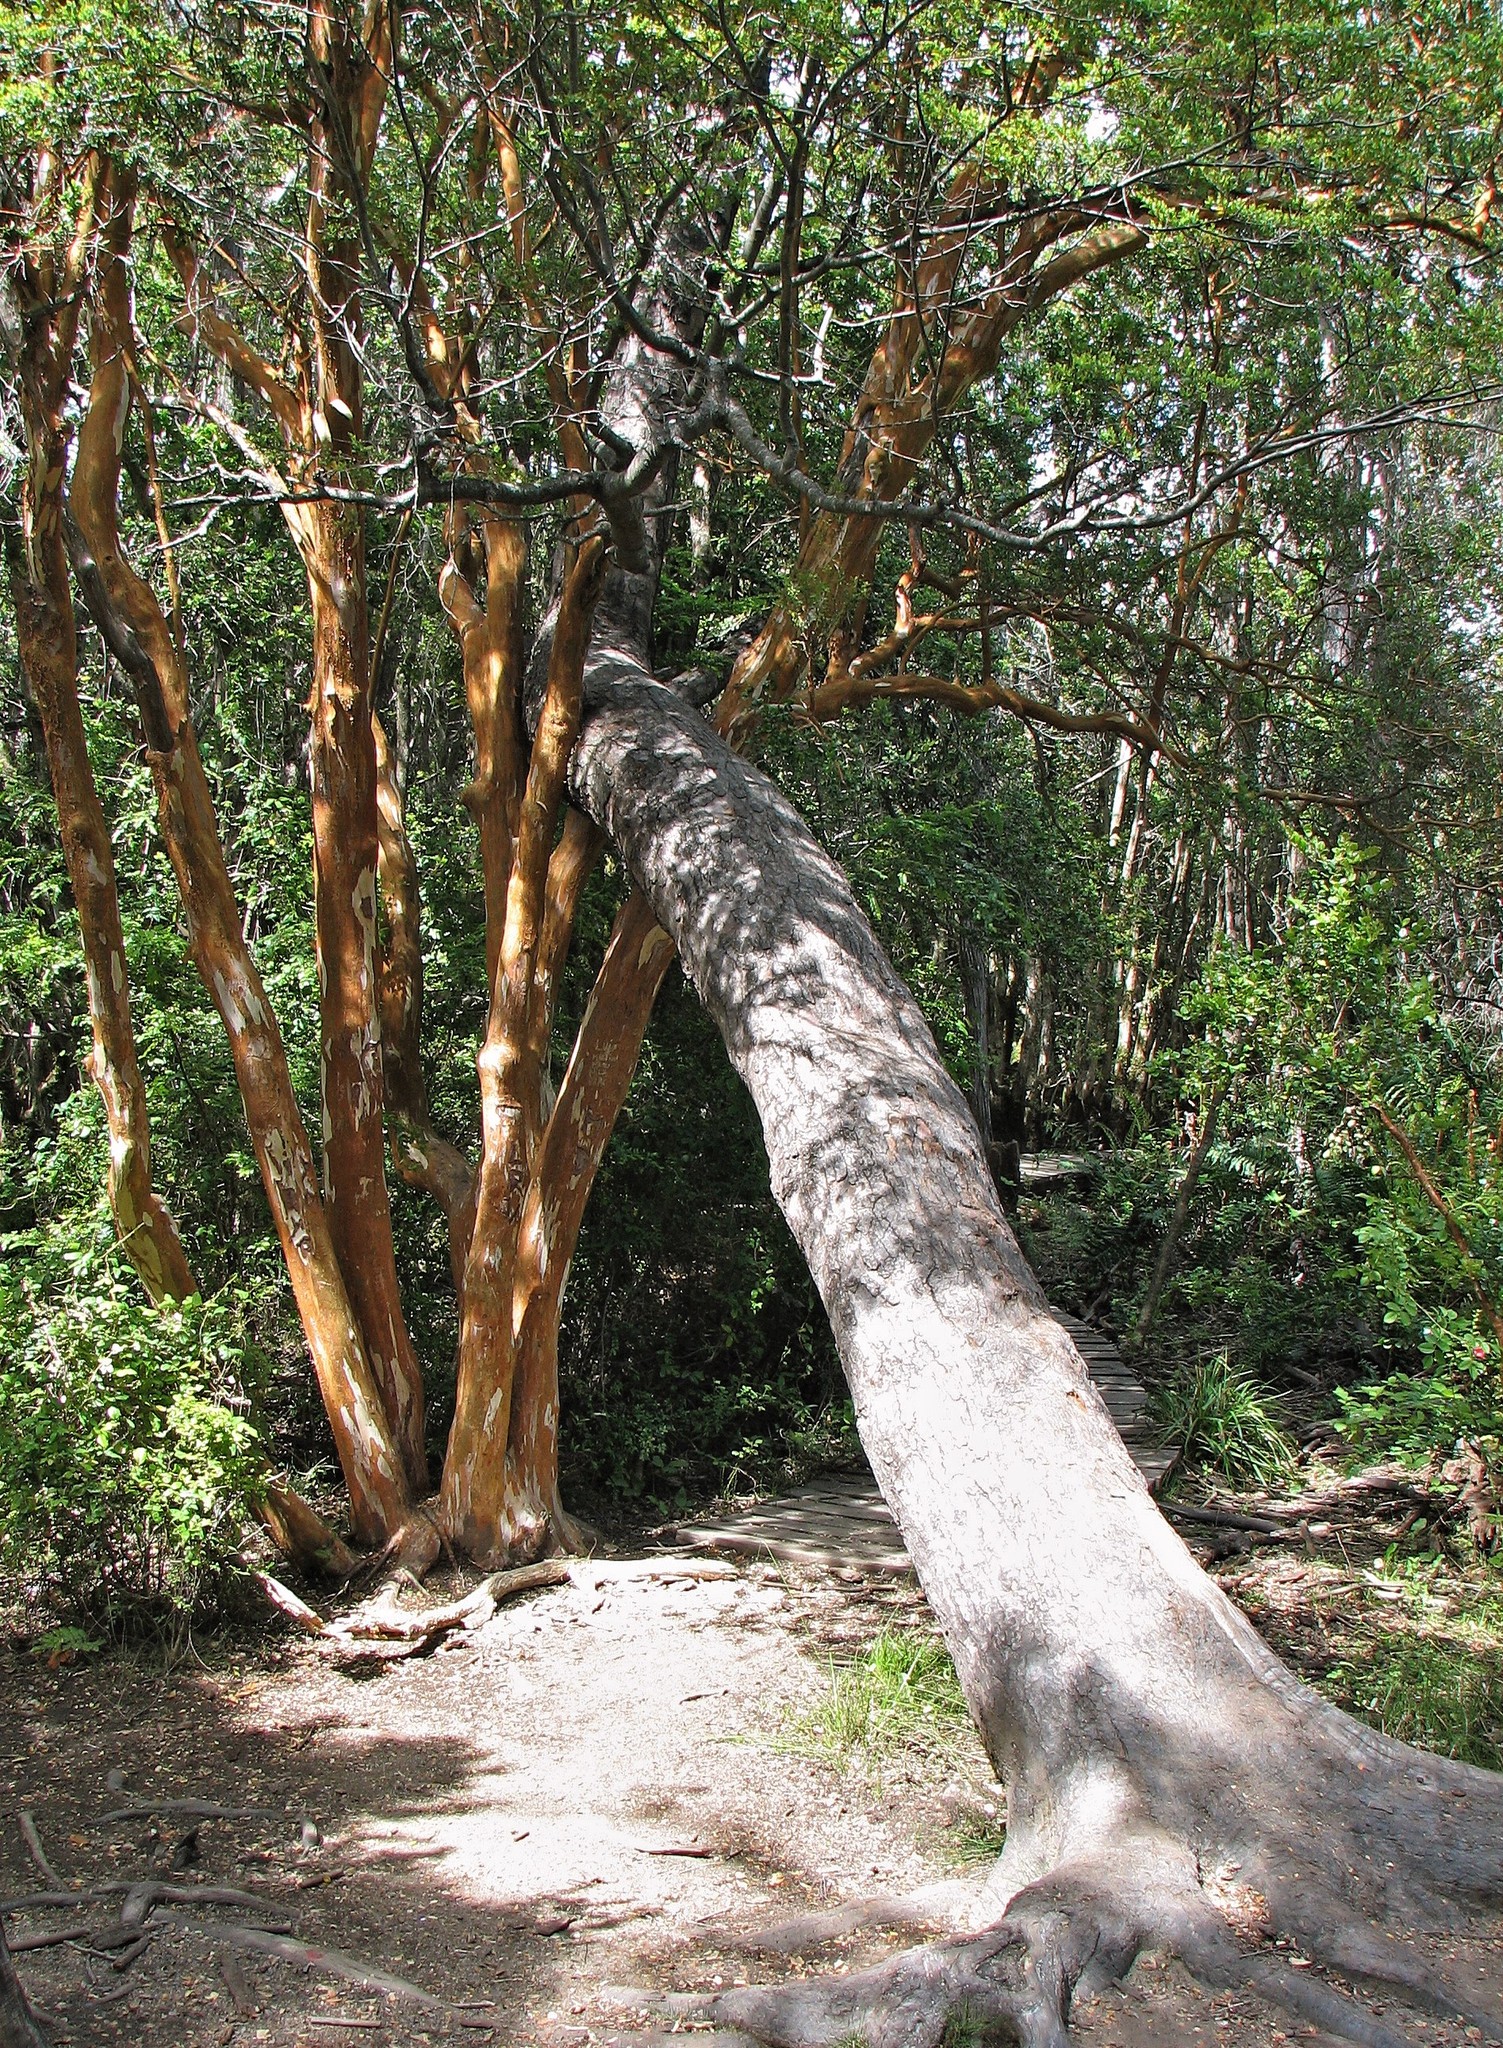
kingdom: Plantae
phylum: Tracheophyta
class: Magnoliopsida
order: Myrtales
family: Myrtaceae
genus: Luma
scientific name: Luma apiculata
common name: Chilean myrtle
